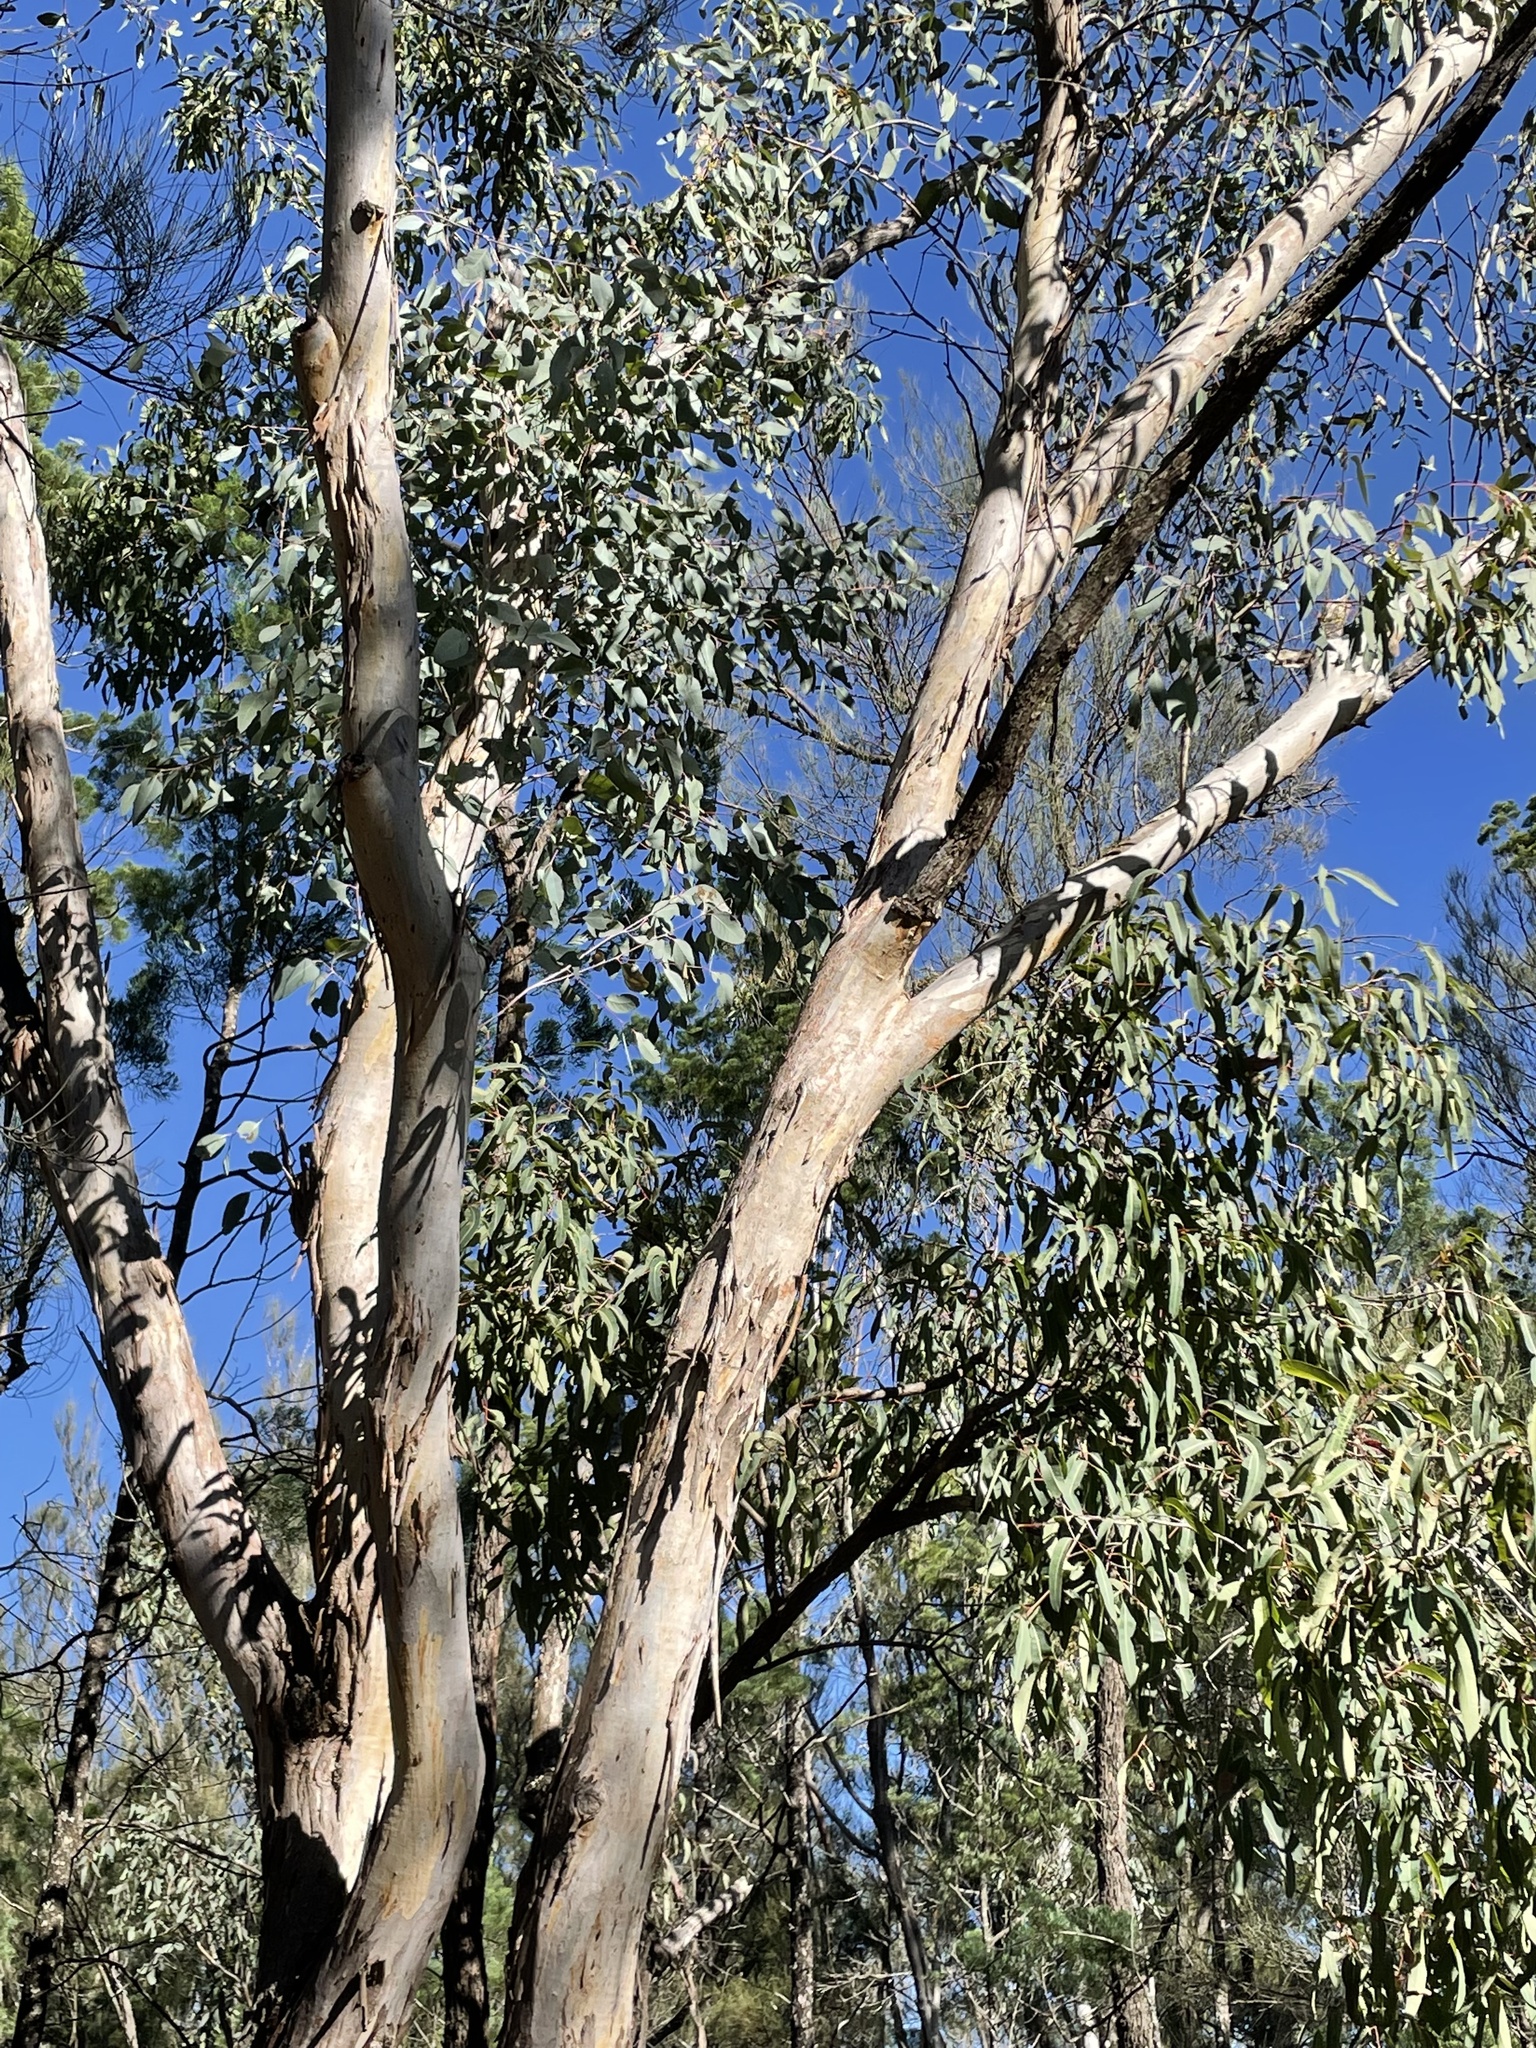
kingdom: Plantae
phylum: Tracheophyta
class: Magnoliopsida
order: Myrtales
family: Myrtaceae
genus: Eucalyptus
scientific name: Eucalyptus chloroclada
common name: Baradine red gum
